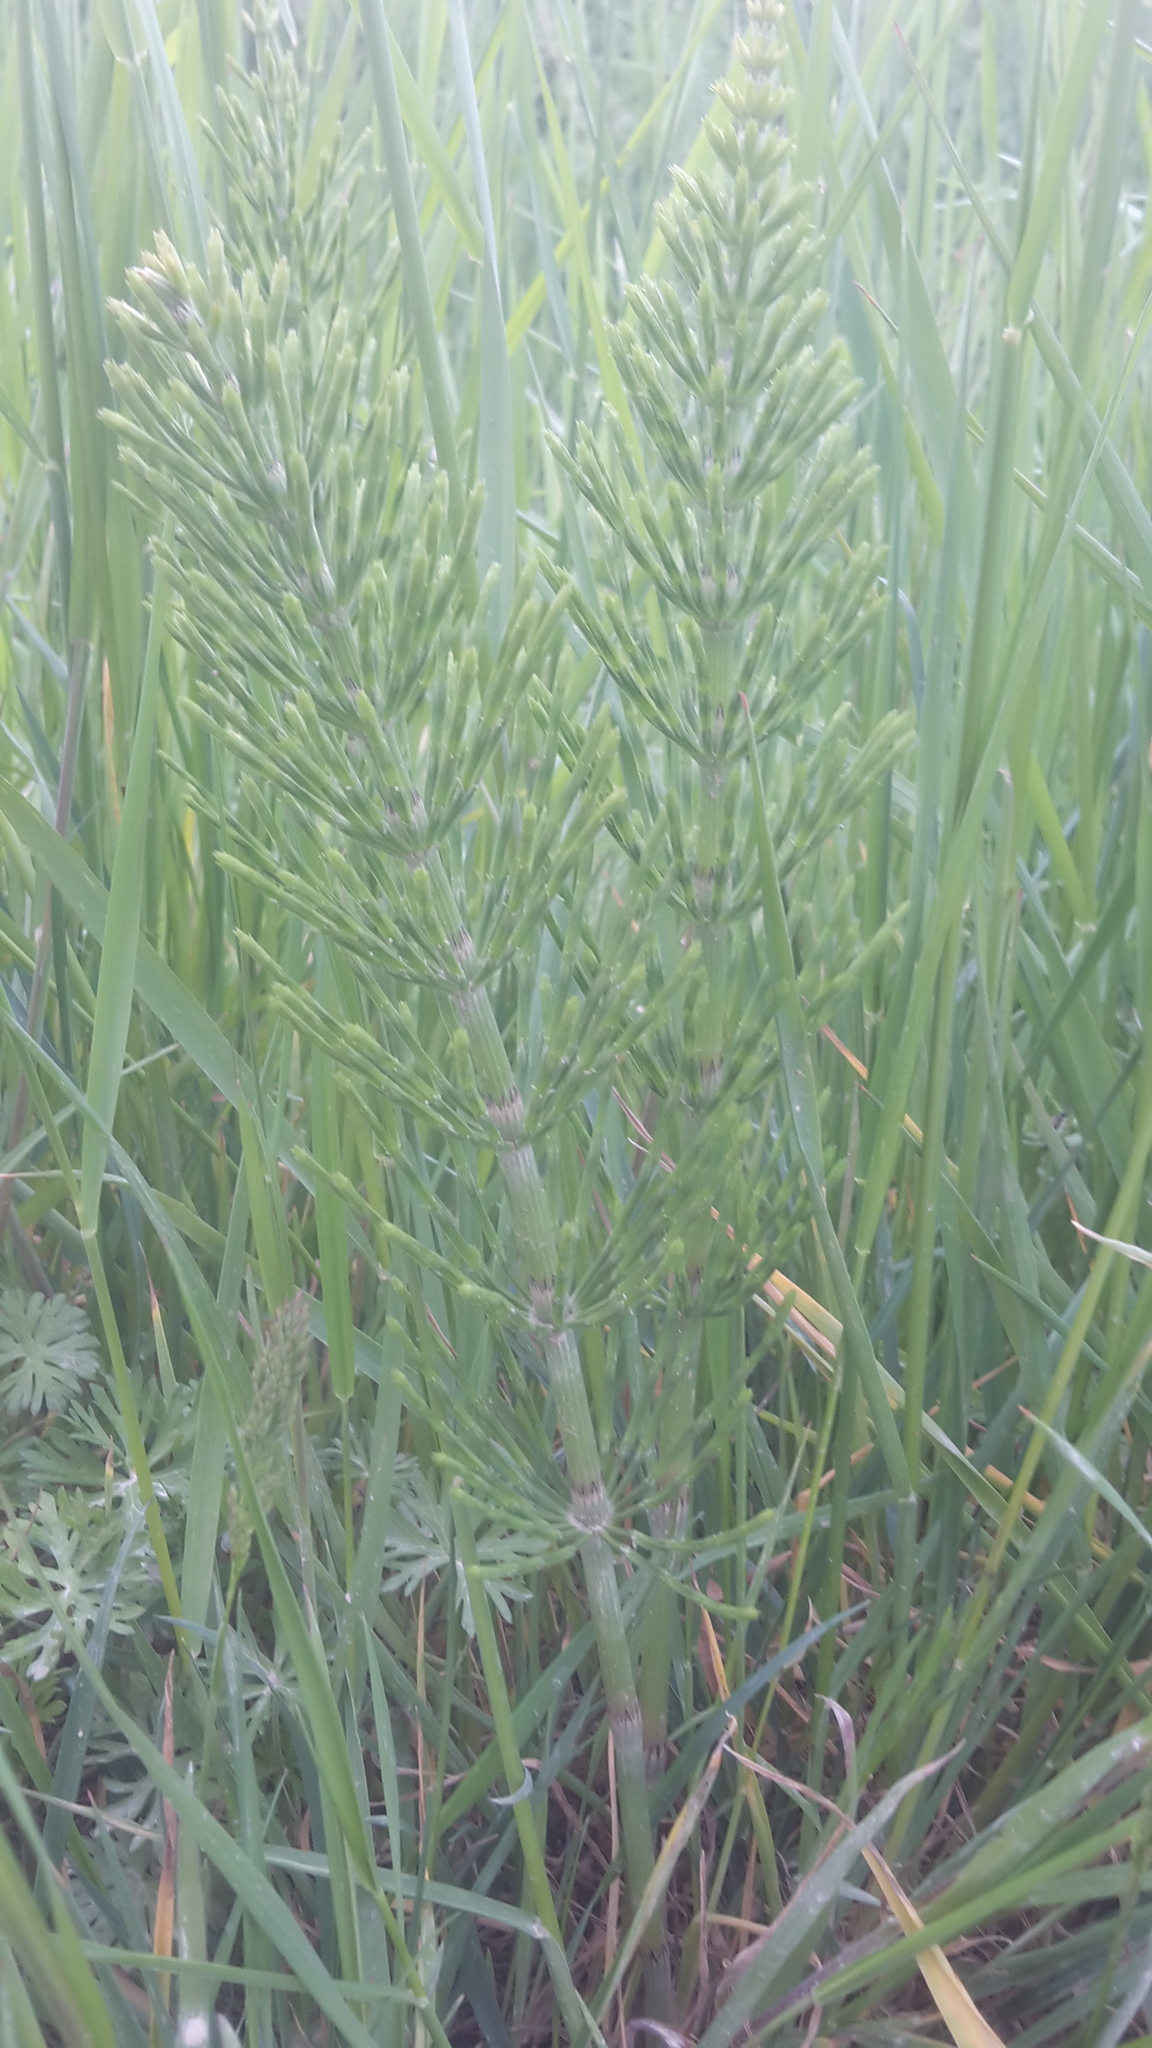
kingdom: Plantae
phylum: Tracheophyta
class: Polypodiopsida
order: Equisetales
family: Equisetaceae
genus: Equisetum
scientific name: Equisetum arvense
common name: Field horsetail
